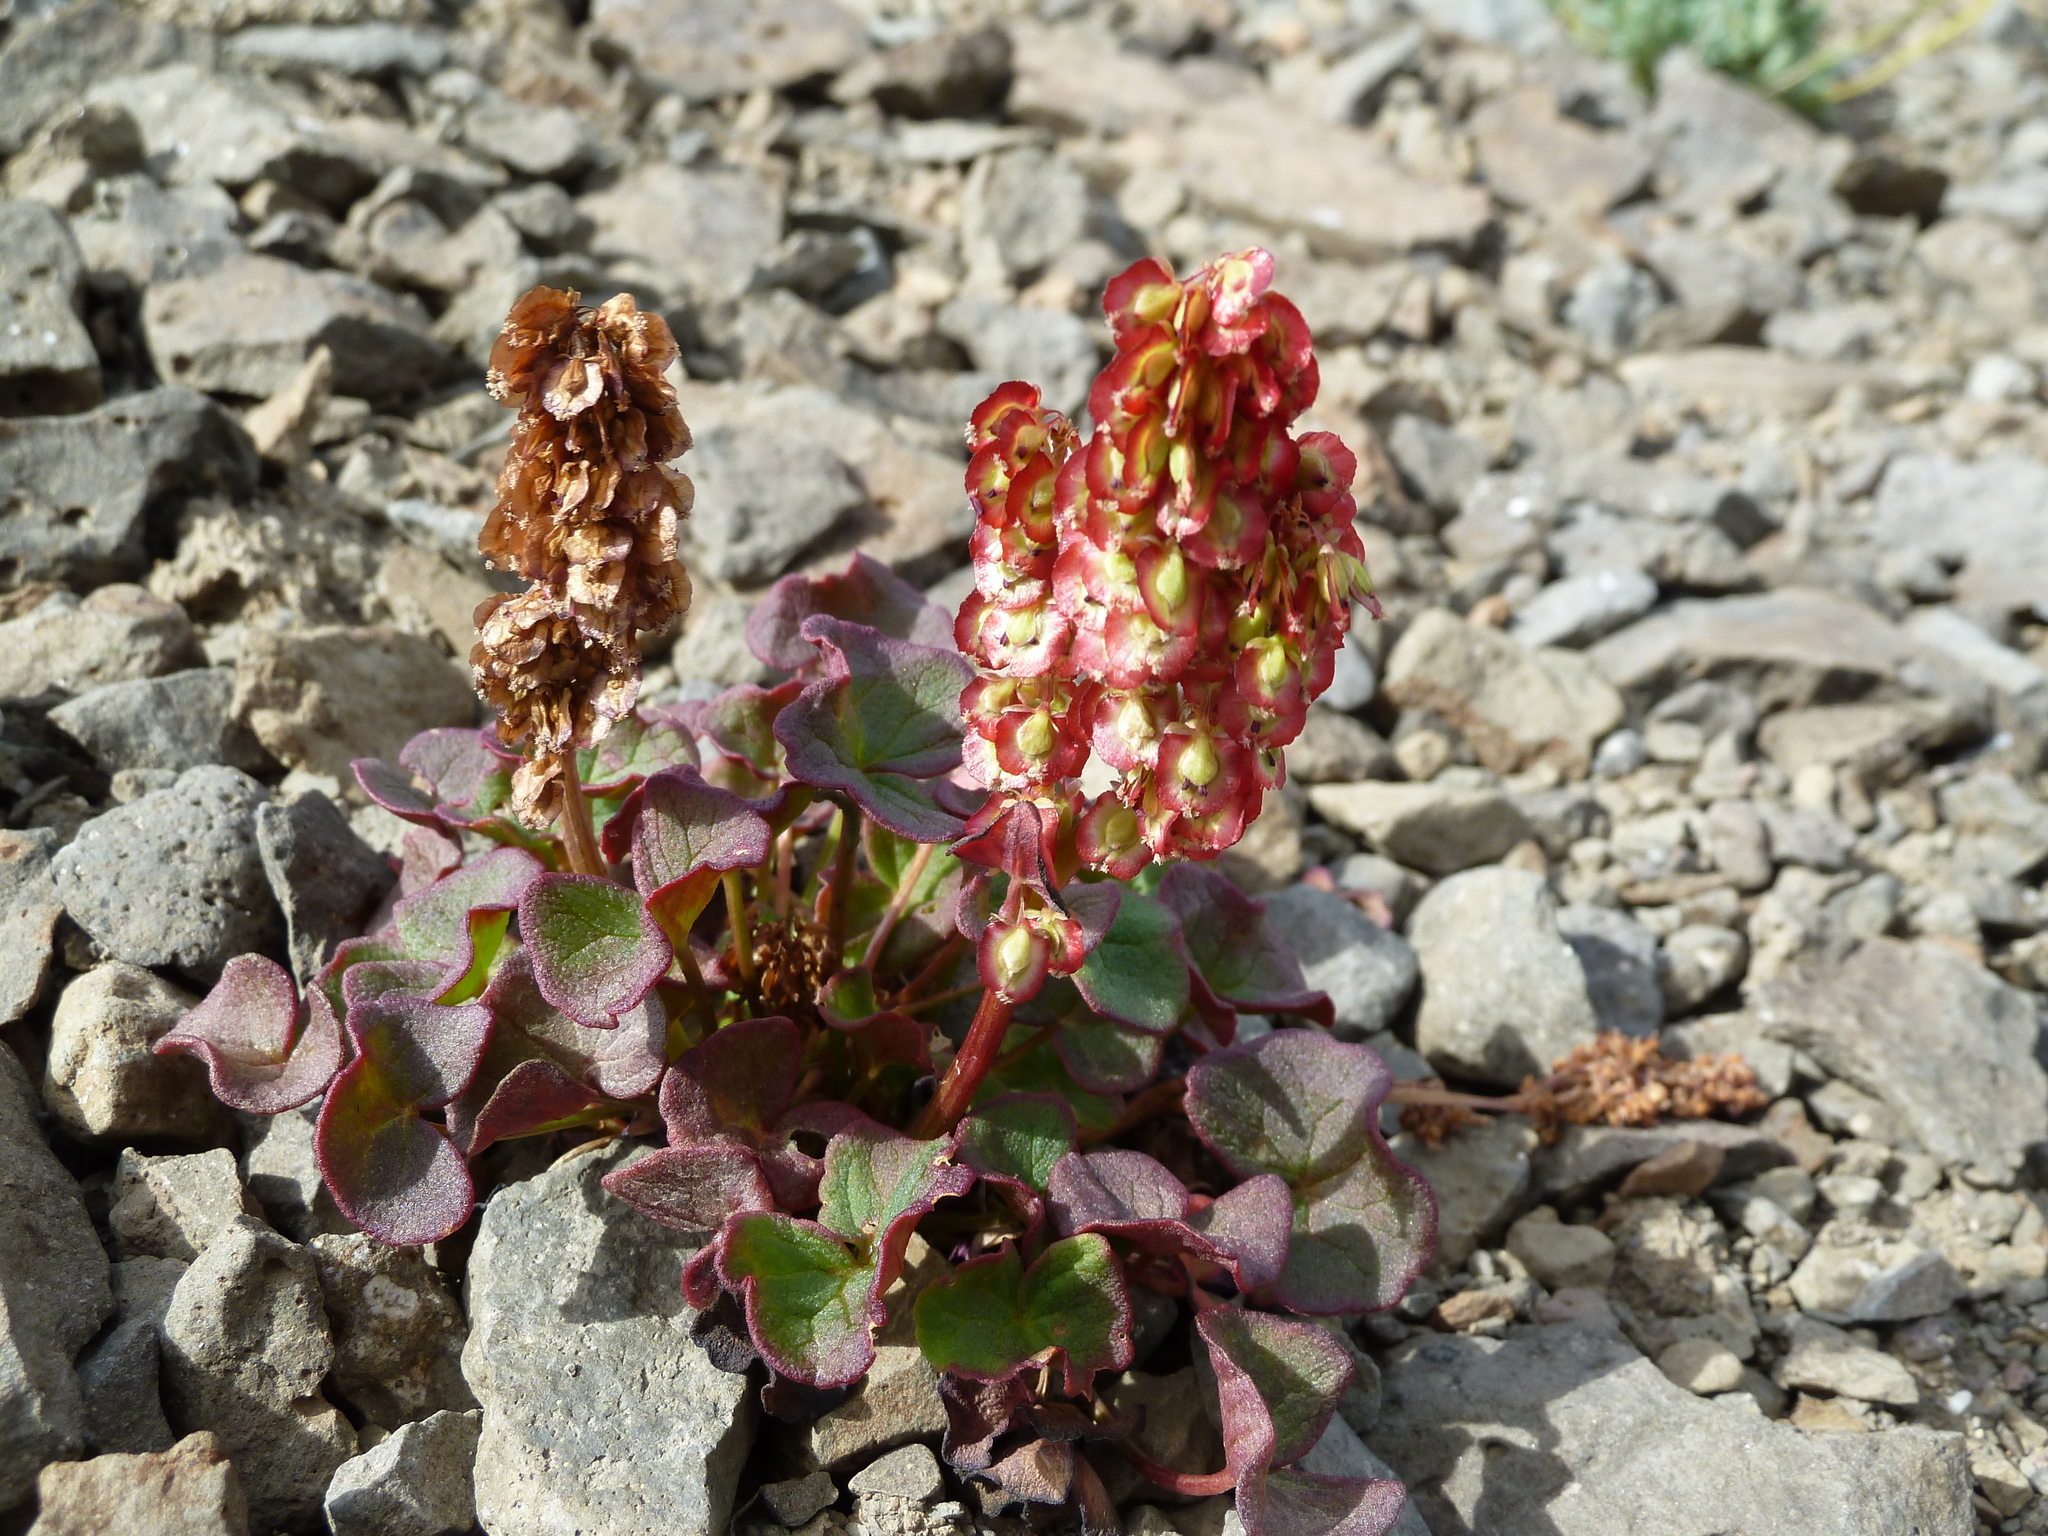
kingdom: Plantae
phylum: Tracheophyta
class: Magnoliopsida
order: Caryophyllales
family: Polygonaceae
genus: Oxyria
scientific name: Oxyria digyna
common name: Alpine mountain-sorrel
